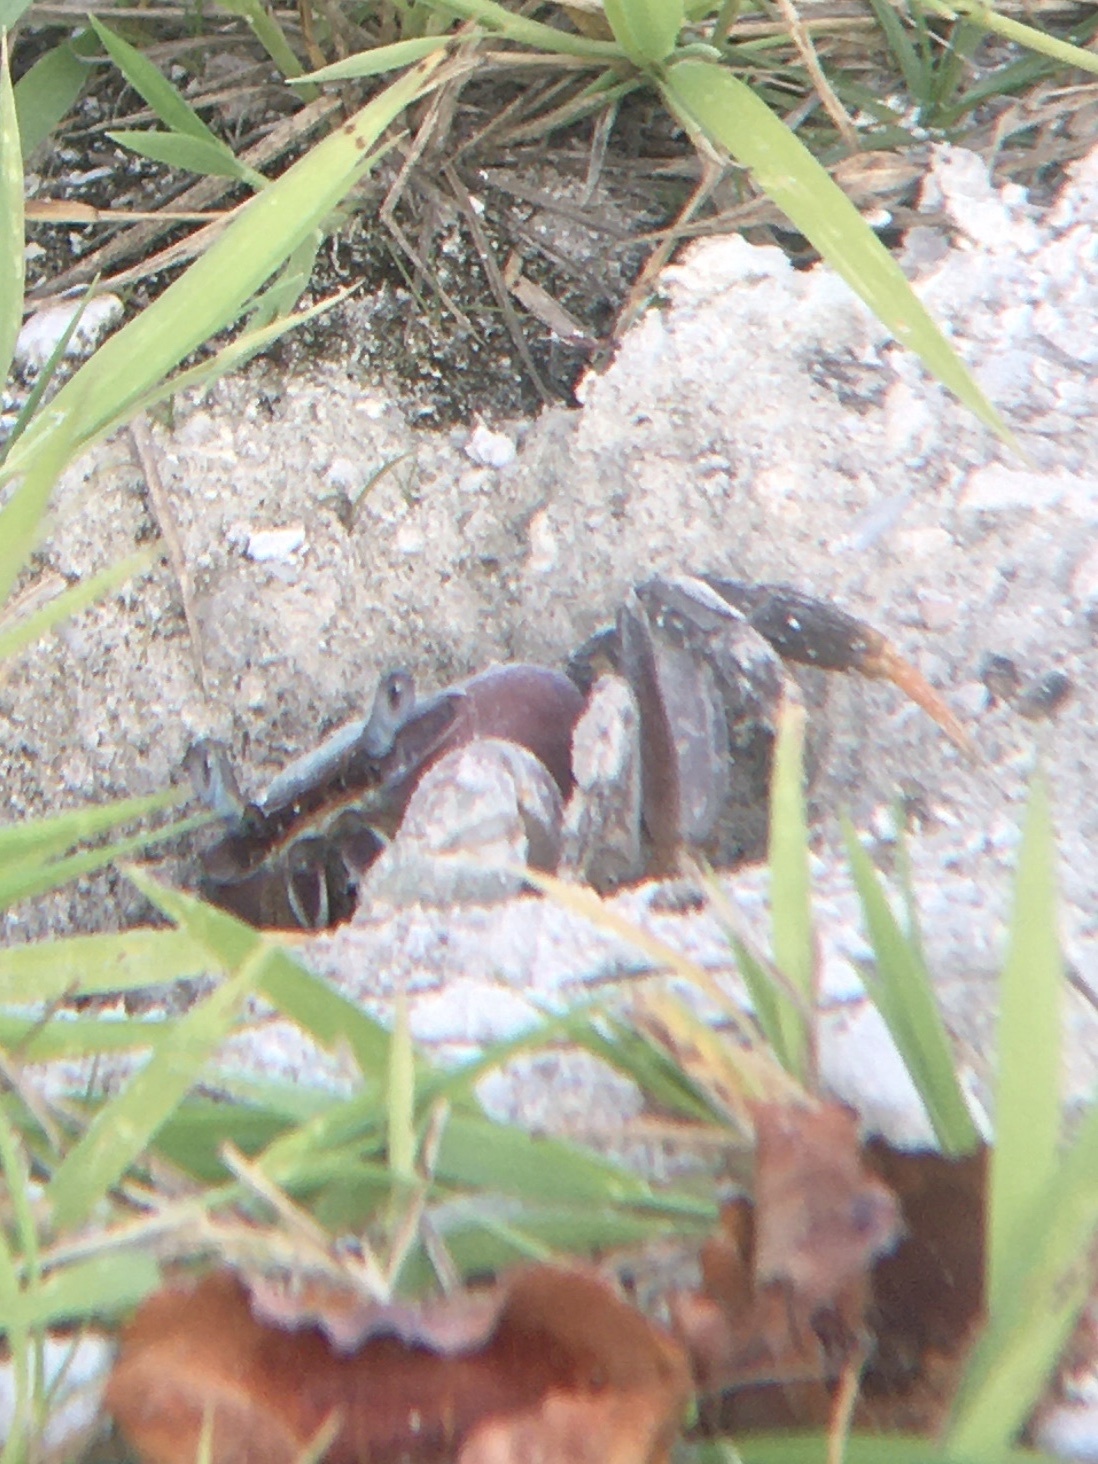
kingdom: Animalia
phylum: Arthropoda
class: Malacostraca
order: Decapoda
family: Gecarcinidae
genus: Cardisoma
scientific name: Cardisoma carnifex
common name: Brown land crab
